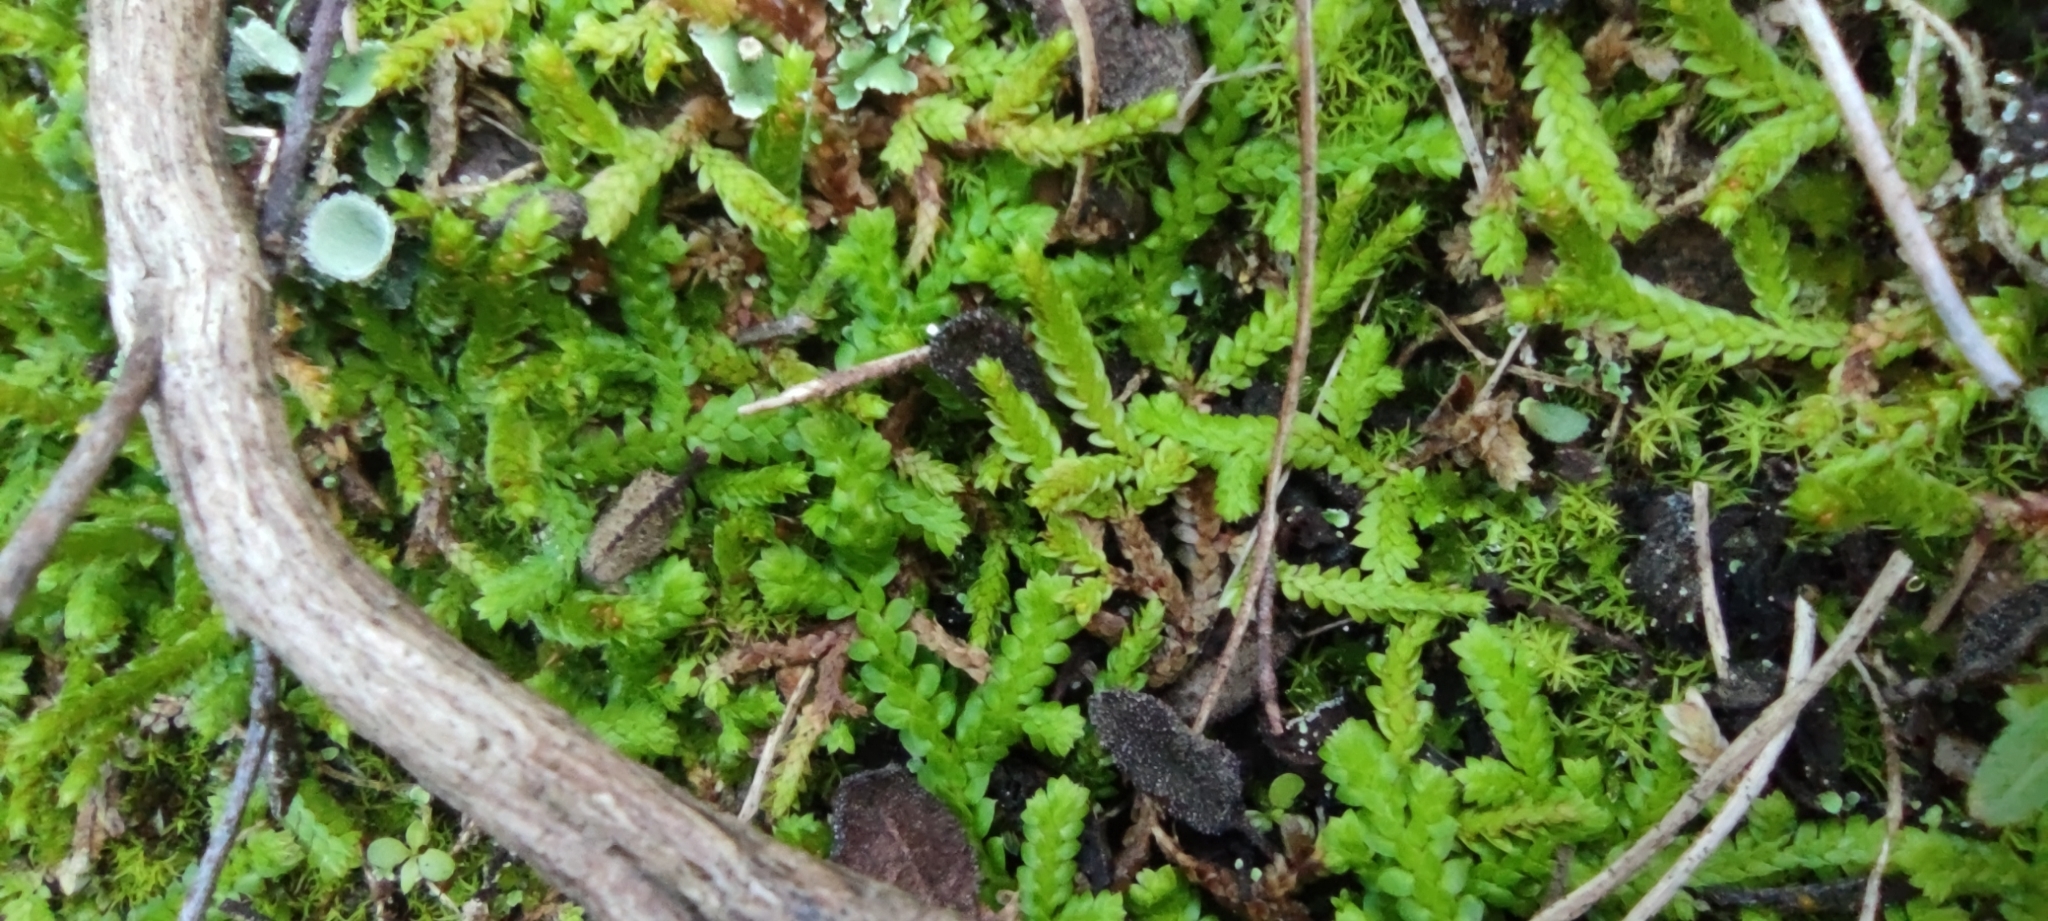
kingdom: Plantae
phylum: Tracheophyta
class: Lycopodiopsida
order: Selaginellales
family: Selaginellaceae
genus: Selaginella
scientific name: Selaginella denticulata
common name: Toothed-leaved clubmoss
